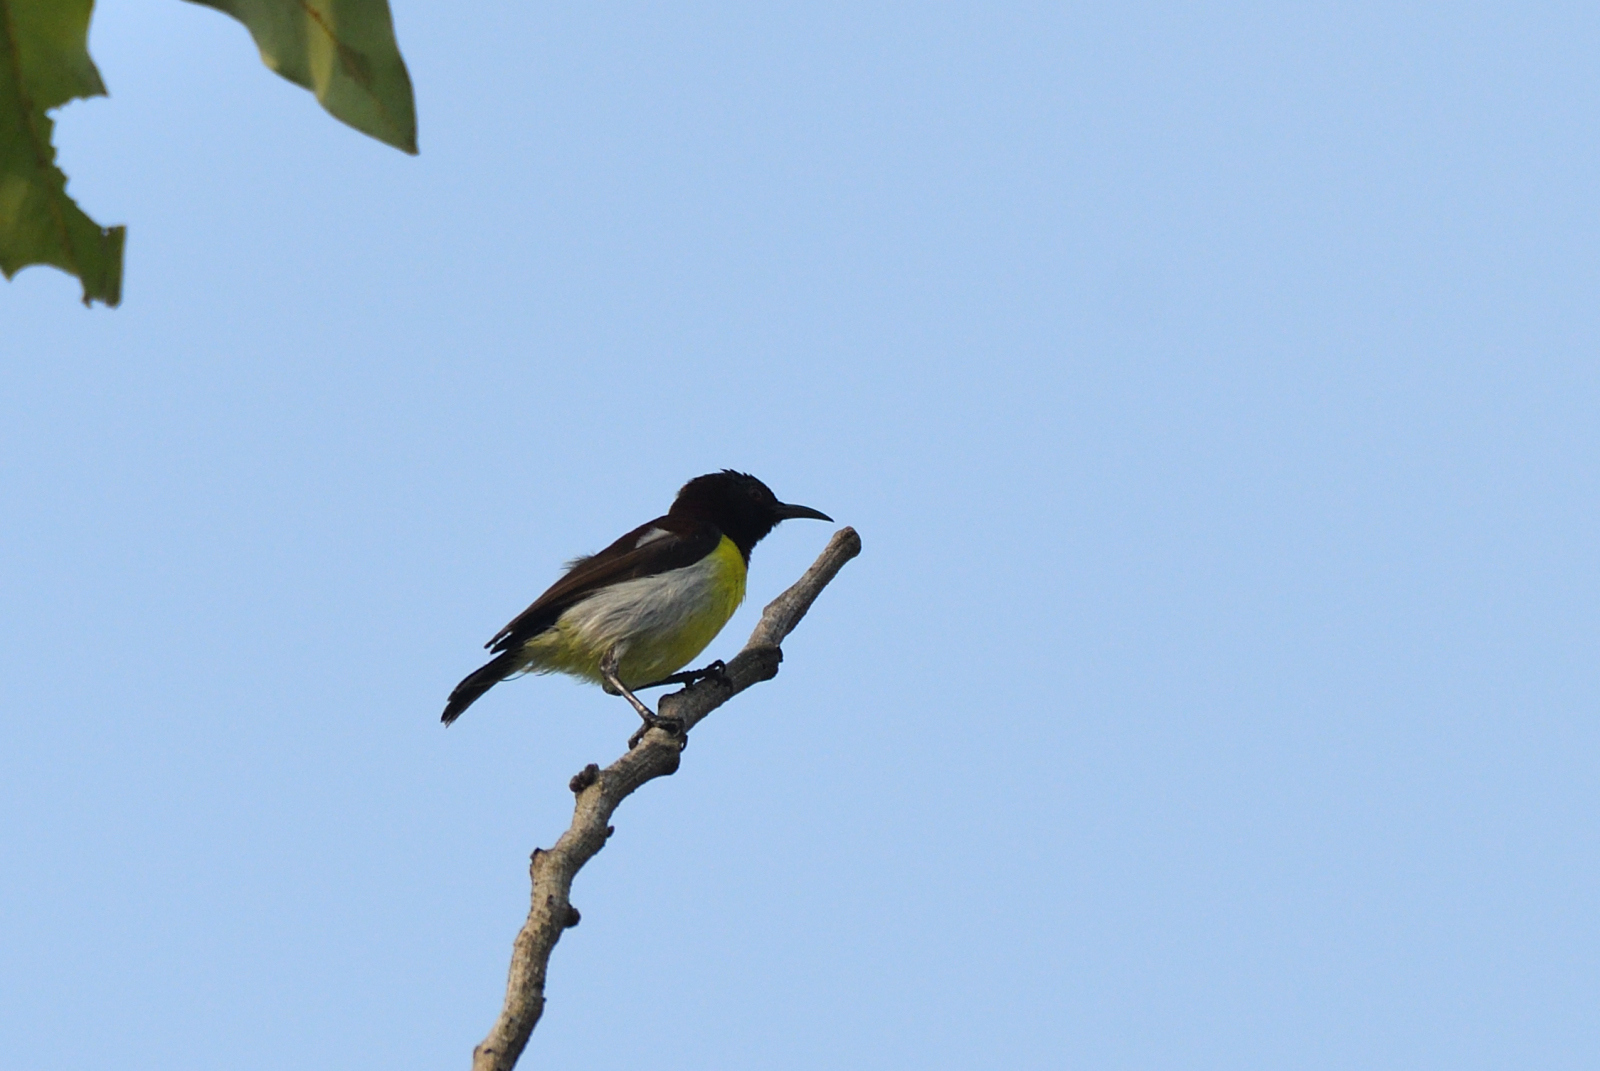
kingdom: Animalia
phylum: Chordata
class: Aves
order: Passeriformes
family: Nectariniidae
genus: Leptocoma
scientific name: Leptocoma zeylonica
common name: Purple-rumped sunbird
